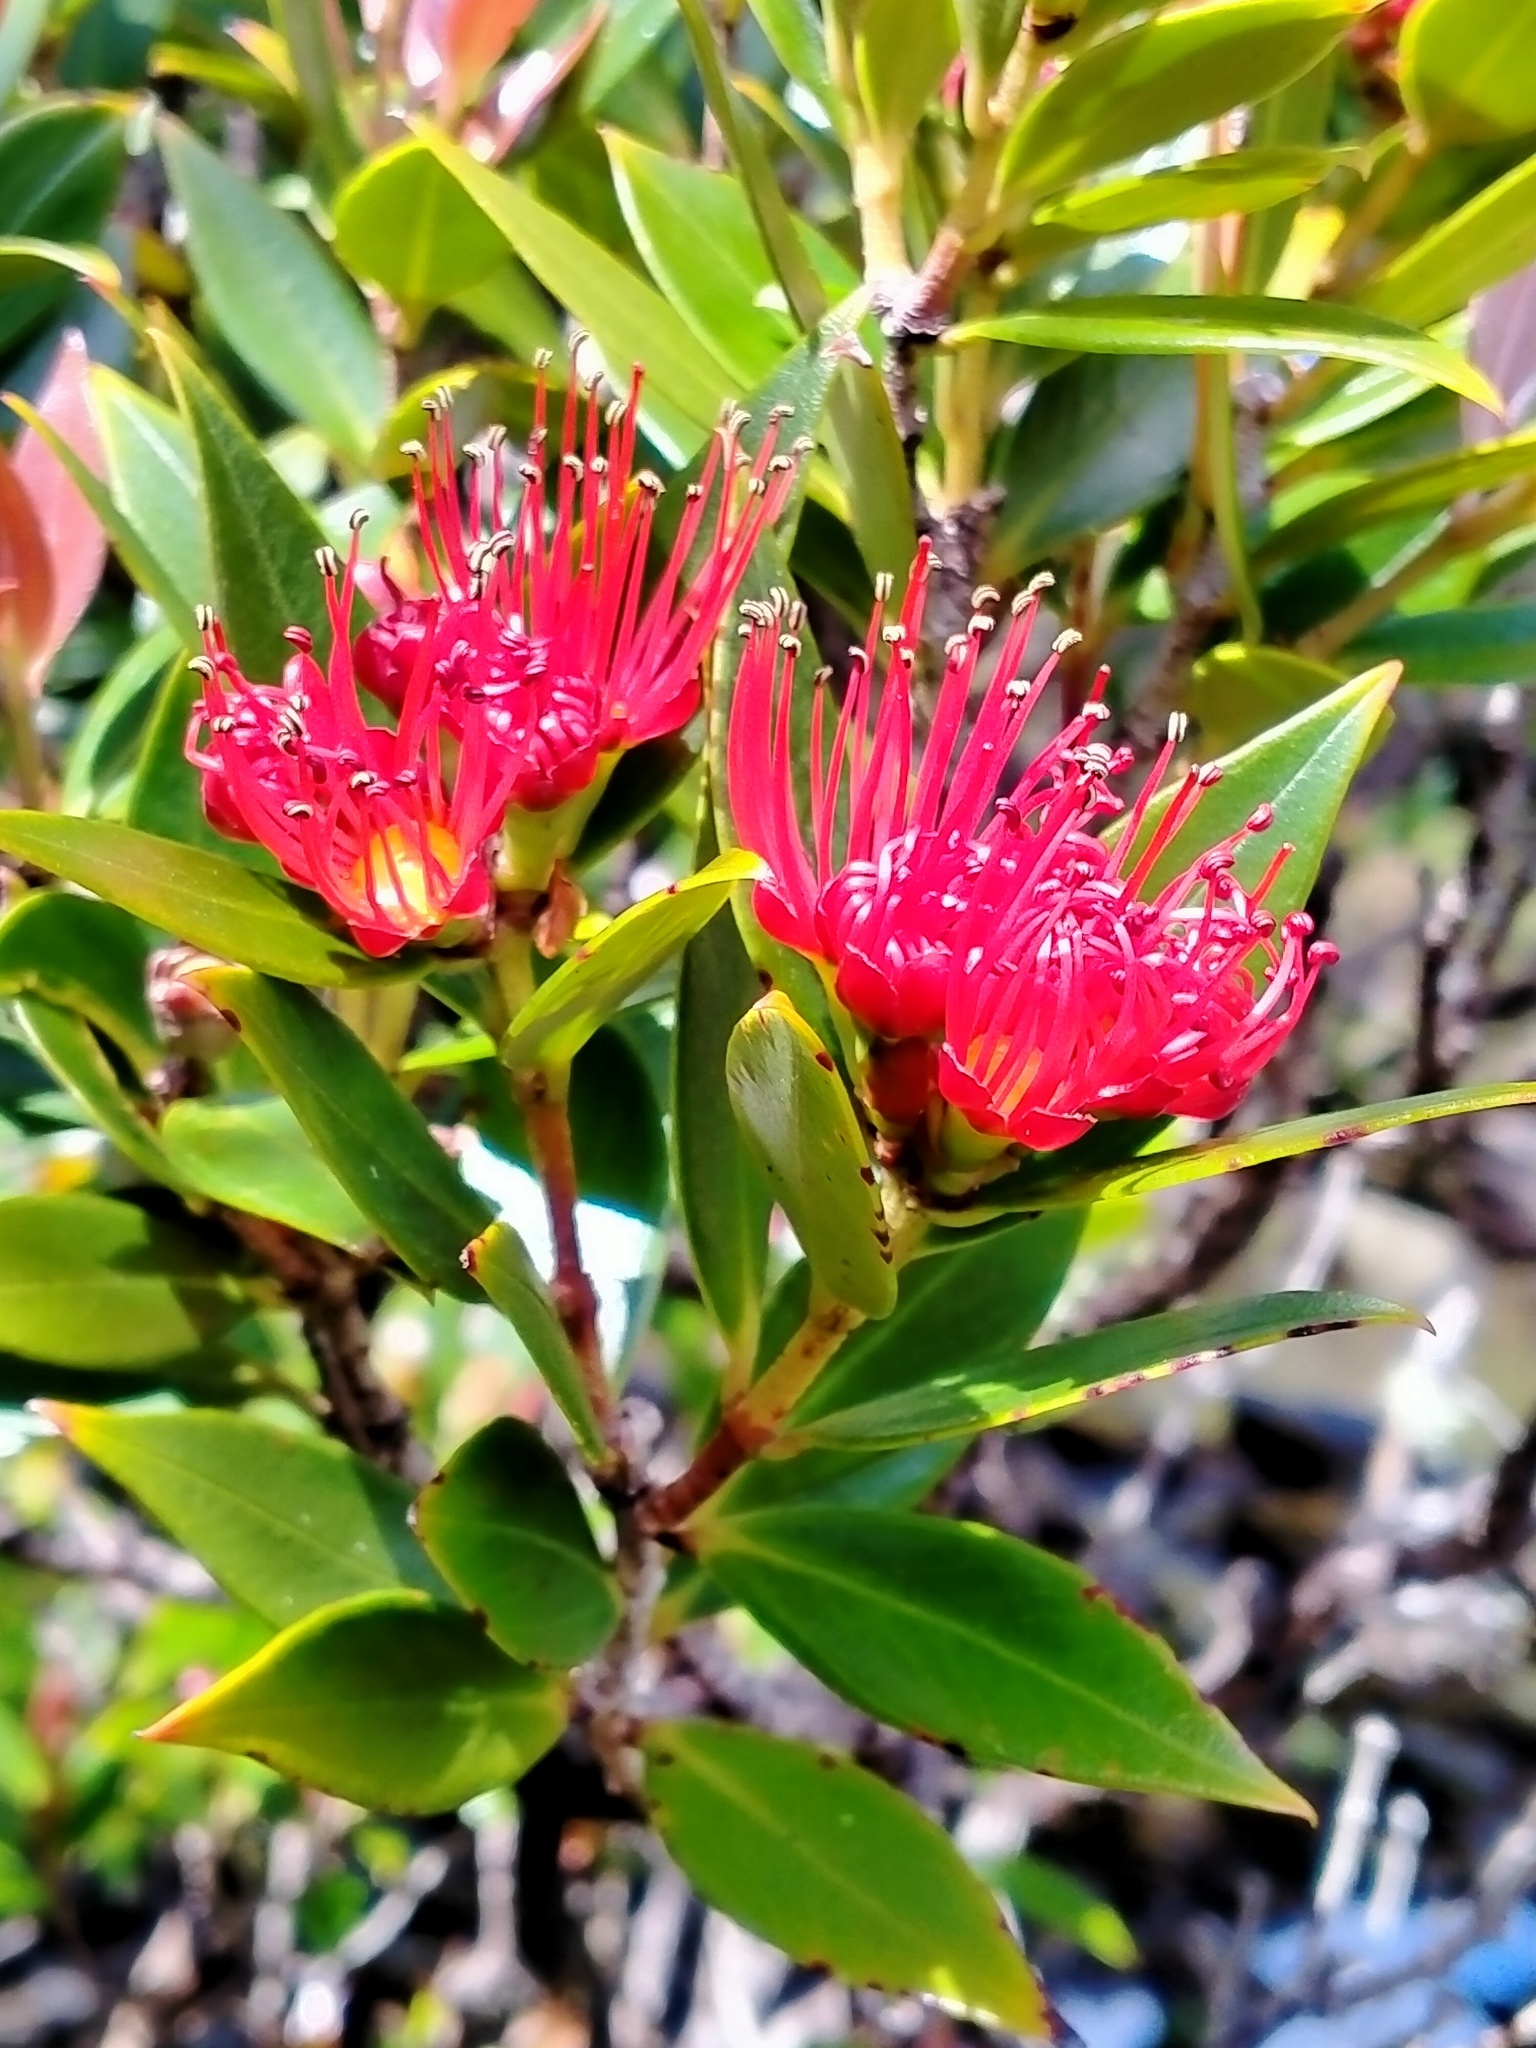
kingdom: Plantae
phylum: Tracheophyta
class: Magnoliopsida
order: Myrtales
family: Myrtaceae
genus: Metrosideros
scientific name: Metrosideros umbellata
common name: Southern rata
